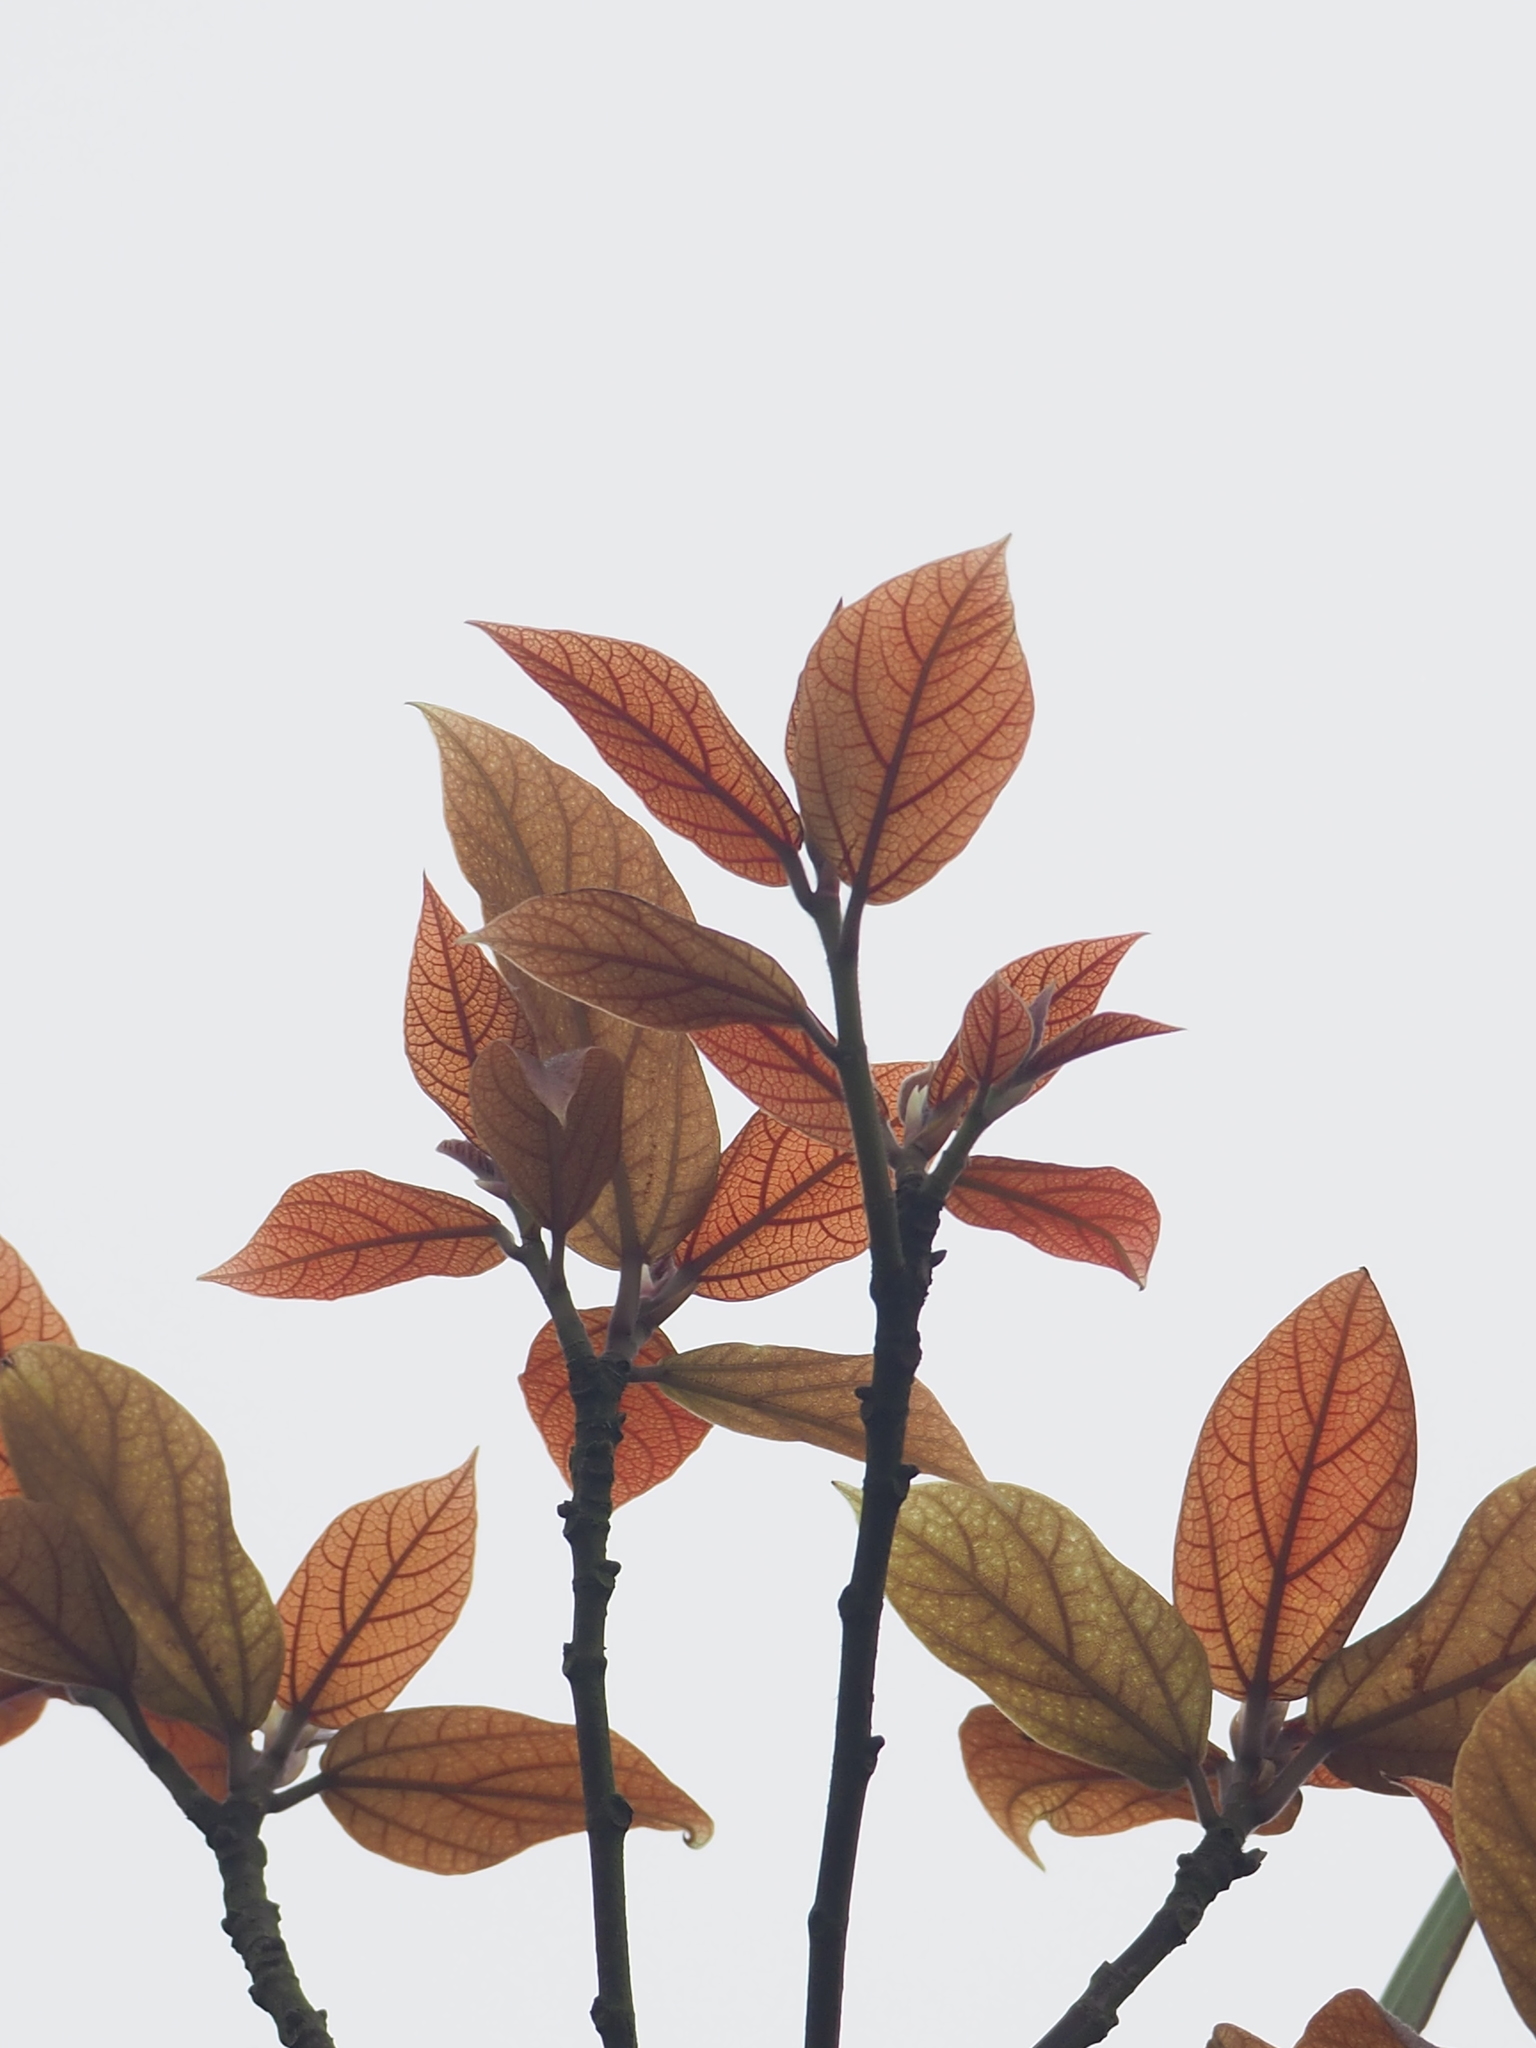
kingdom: Plantae
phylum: Tracheophyta
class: Magnoliopsida
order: Rosales
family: Moraceae
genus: Ficus
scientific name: Ficus erecta
